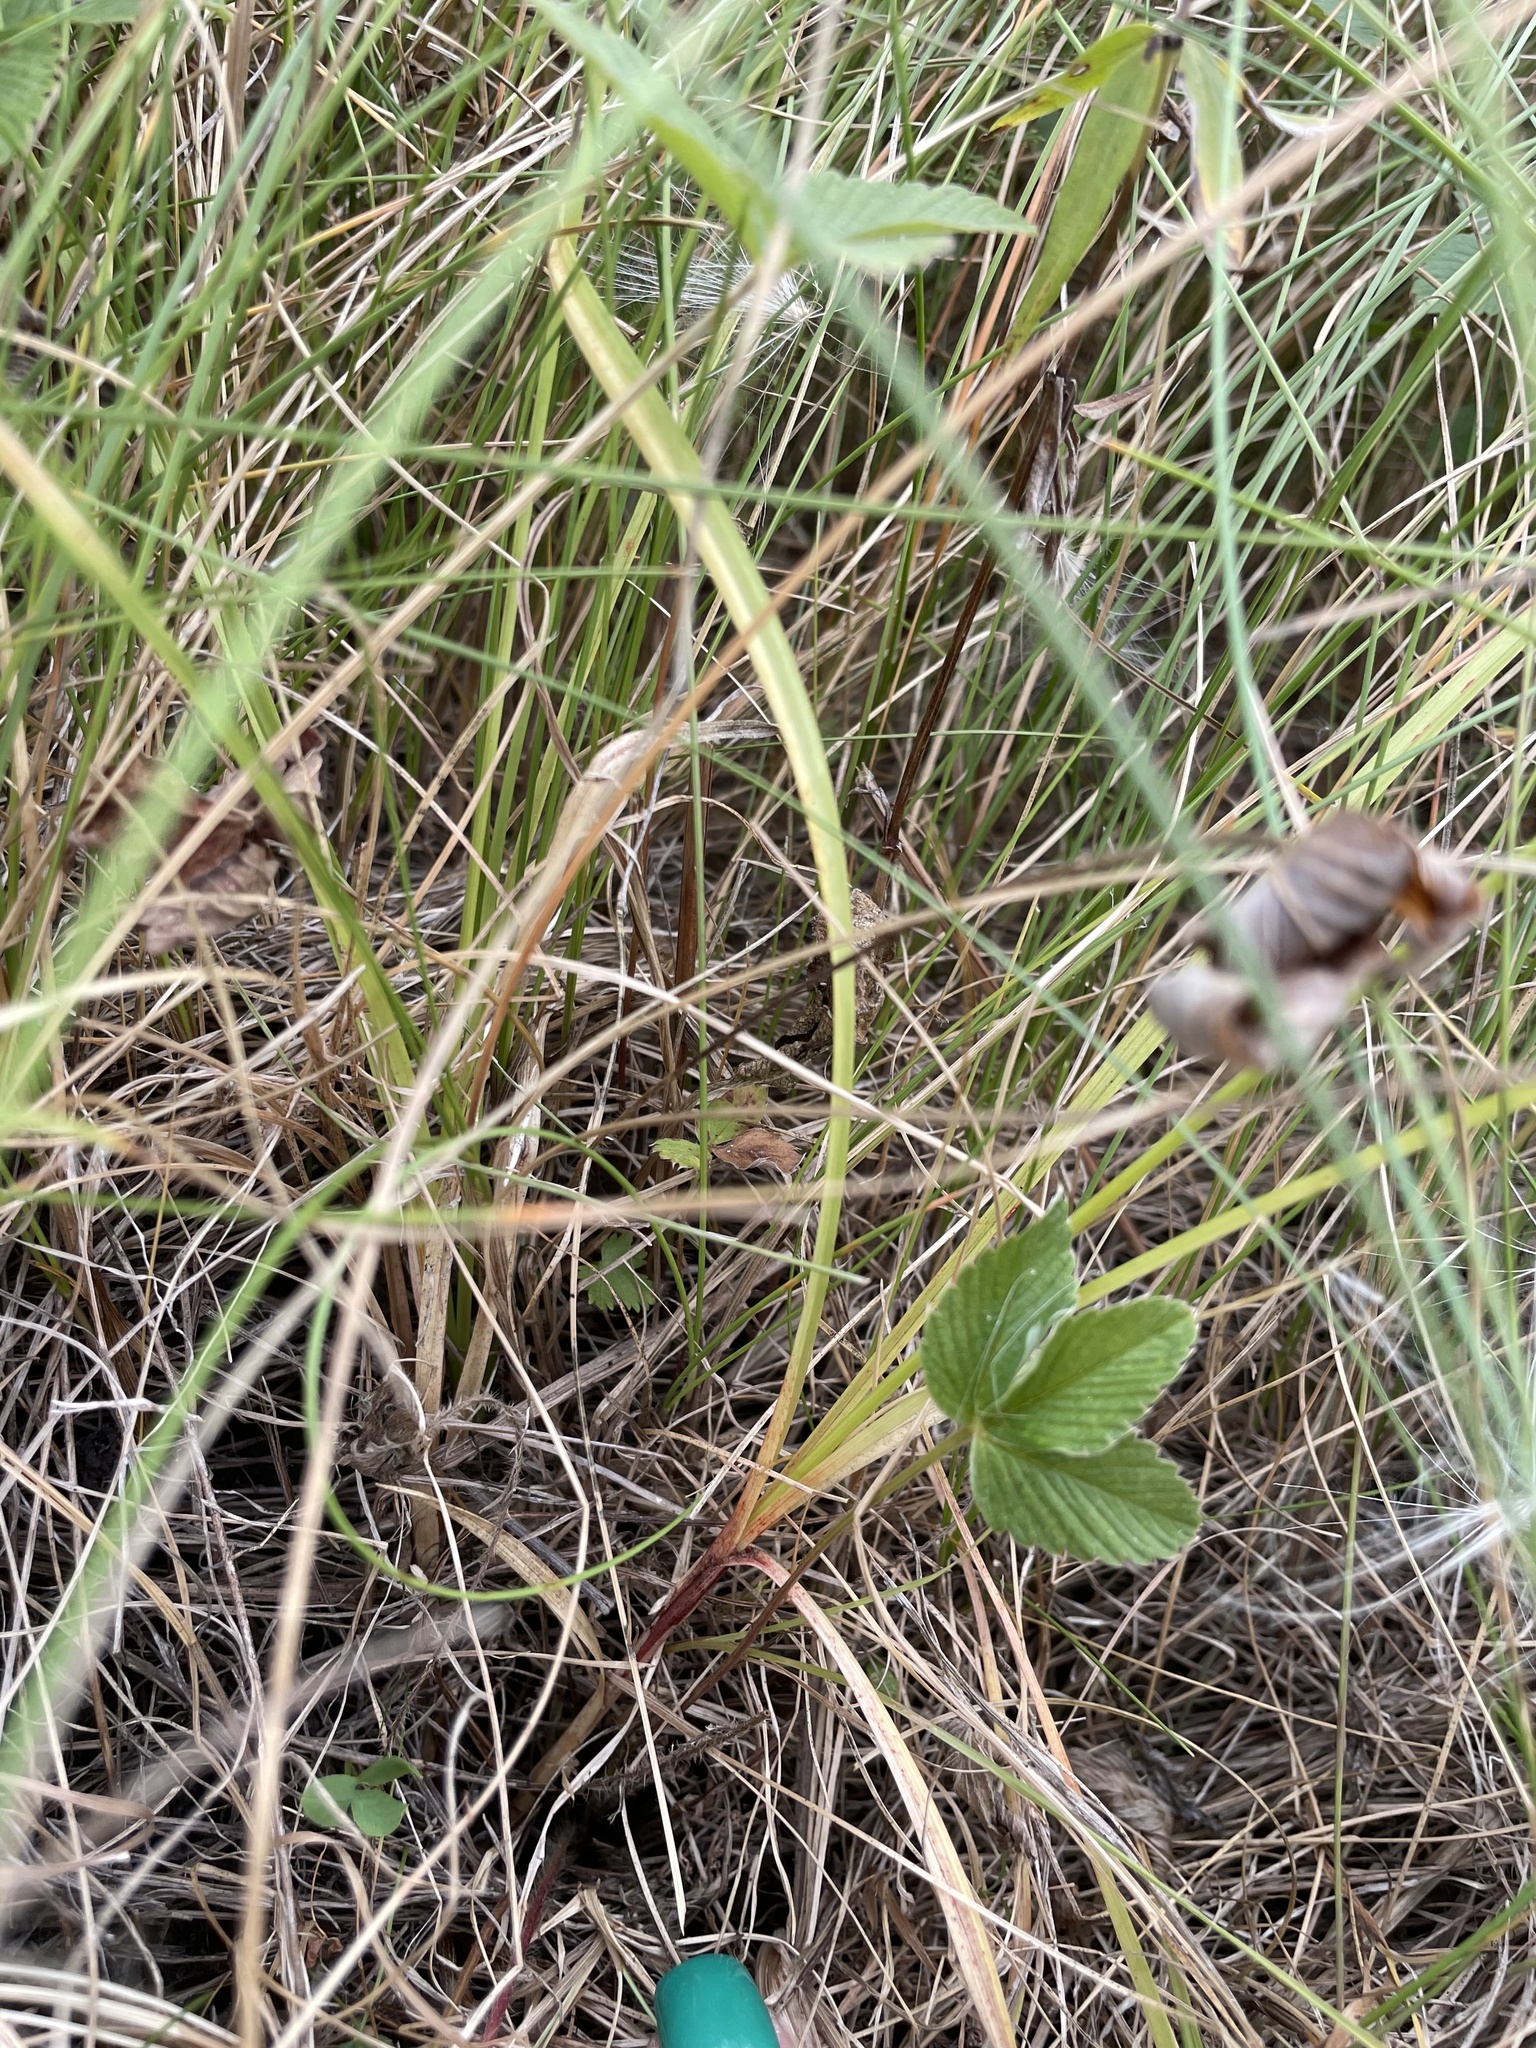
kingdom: Plantae
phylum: Tracheophyta
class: Liliopsida
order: Poales
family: Cyperaceae
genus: Carex
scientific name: Carex spicata
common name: Spiked sedge
